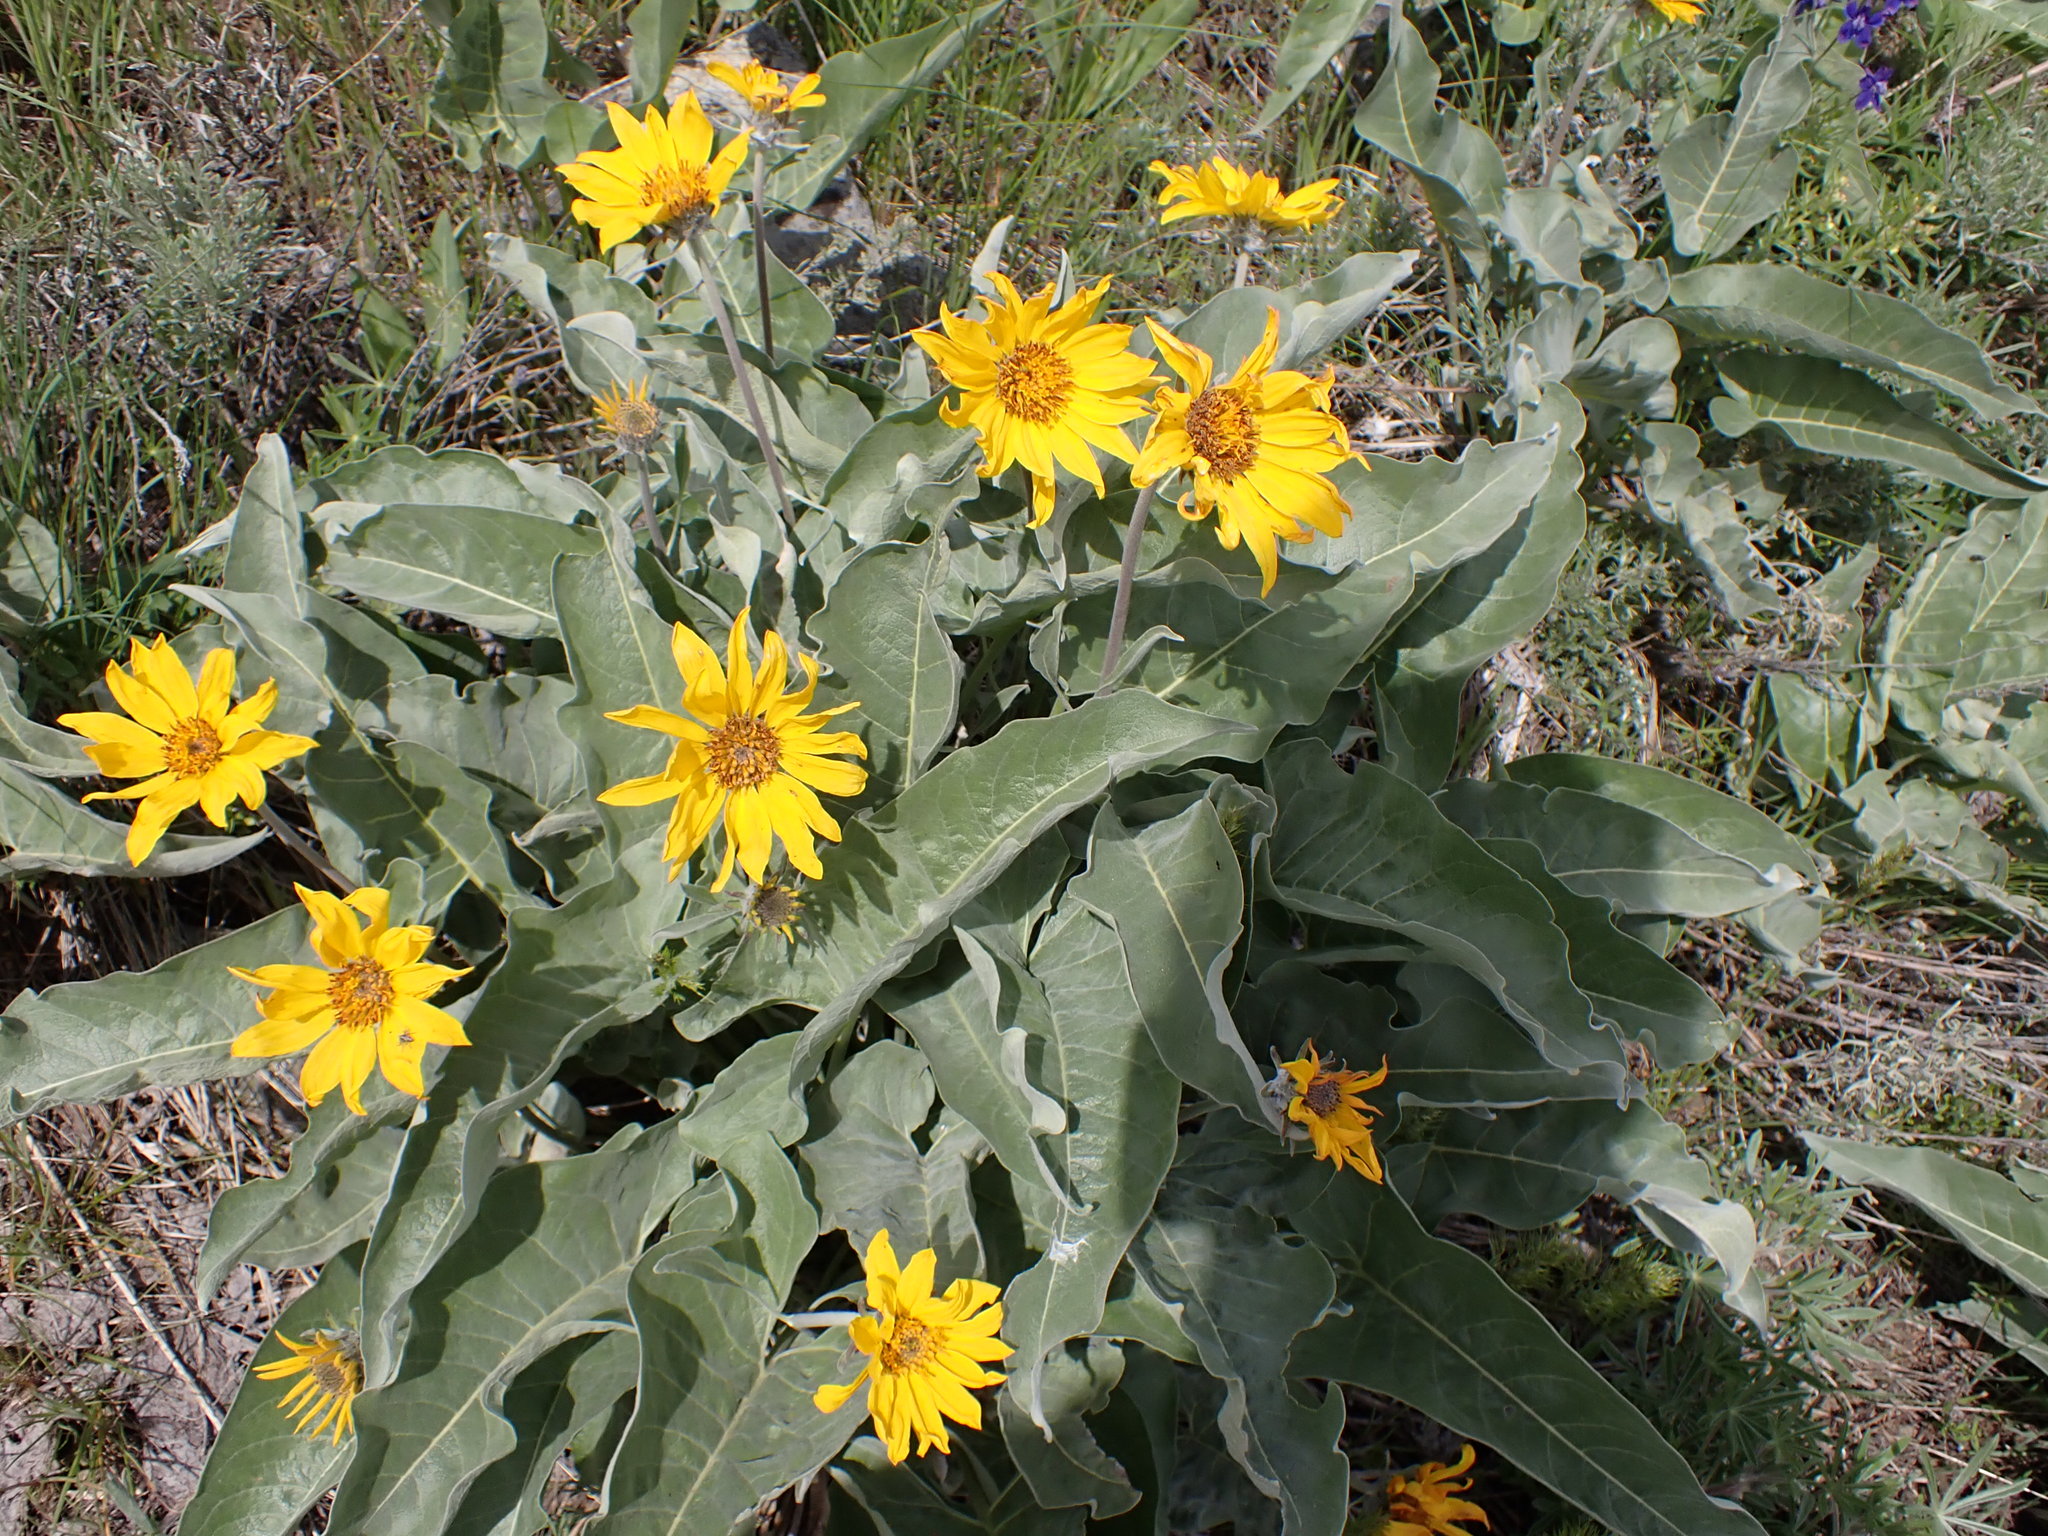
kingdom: Plantae
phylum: Tracheophyta
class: Magnoliopsida
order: Asterales
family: Asteraceae
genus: Wyethia
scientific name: Wyethia sagittata
